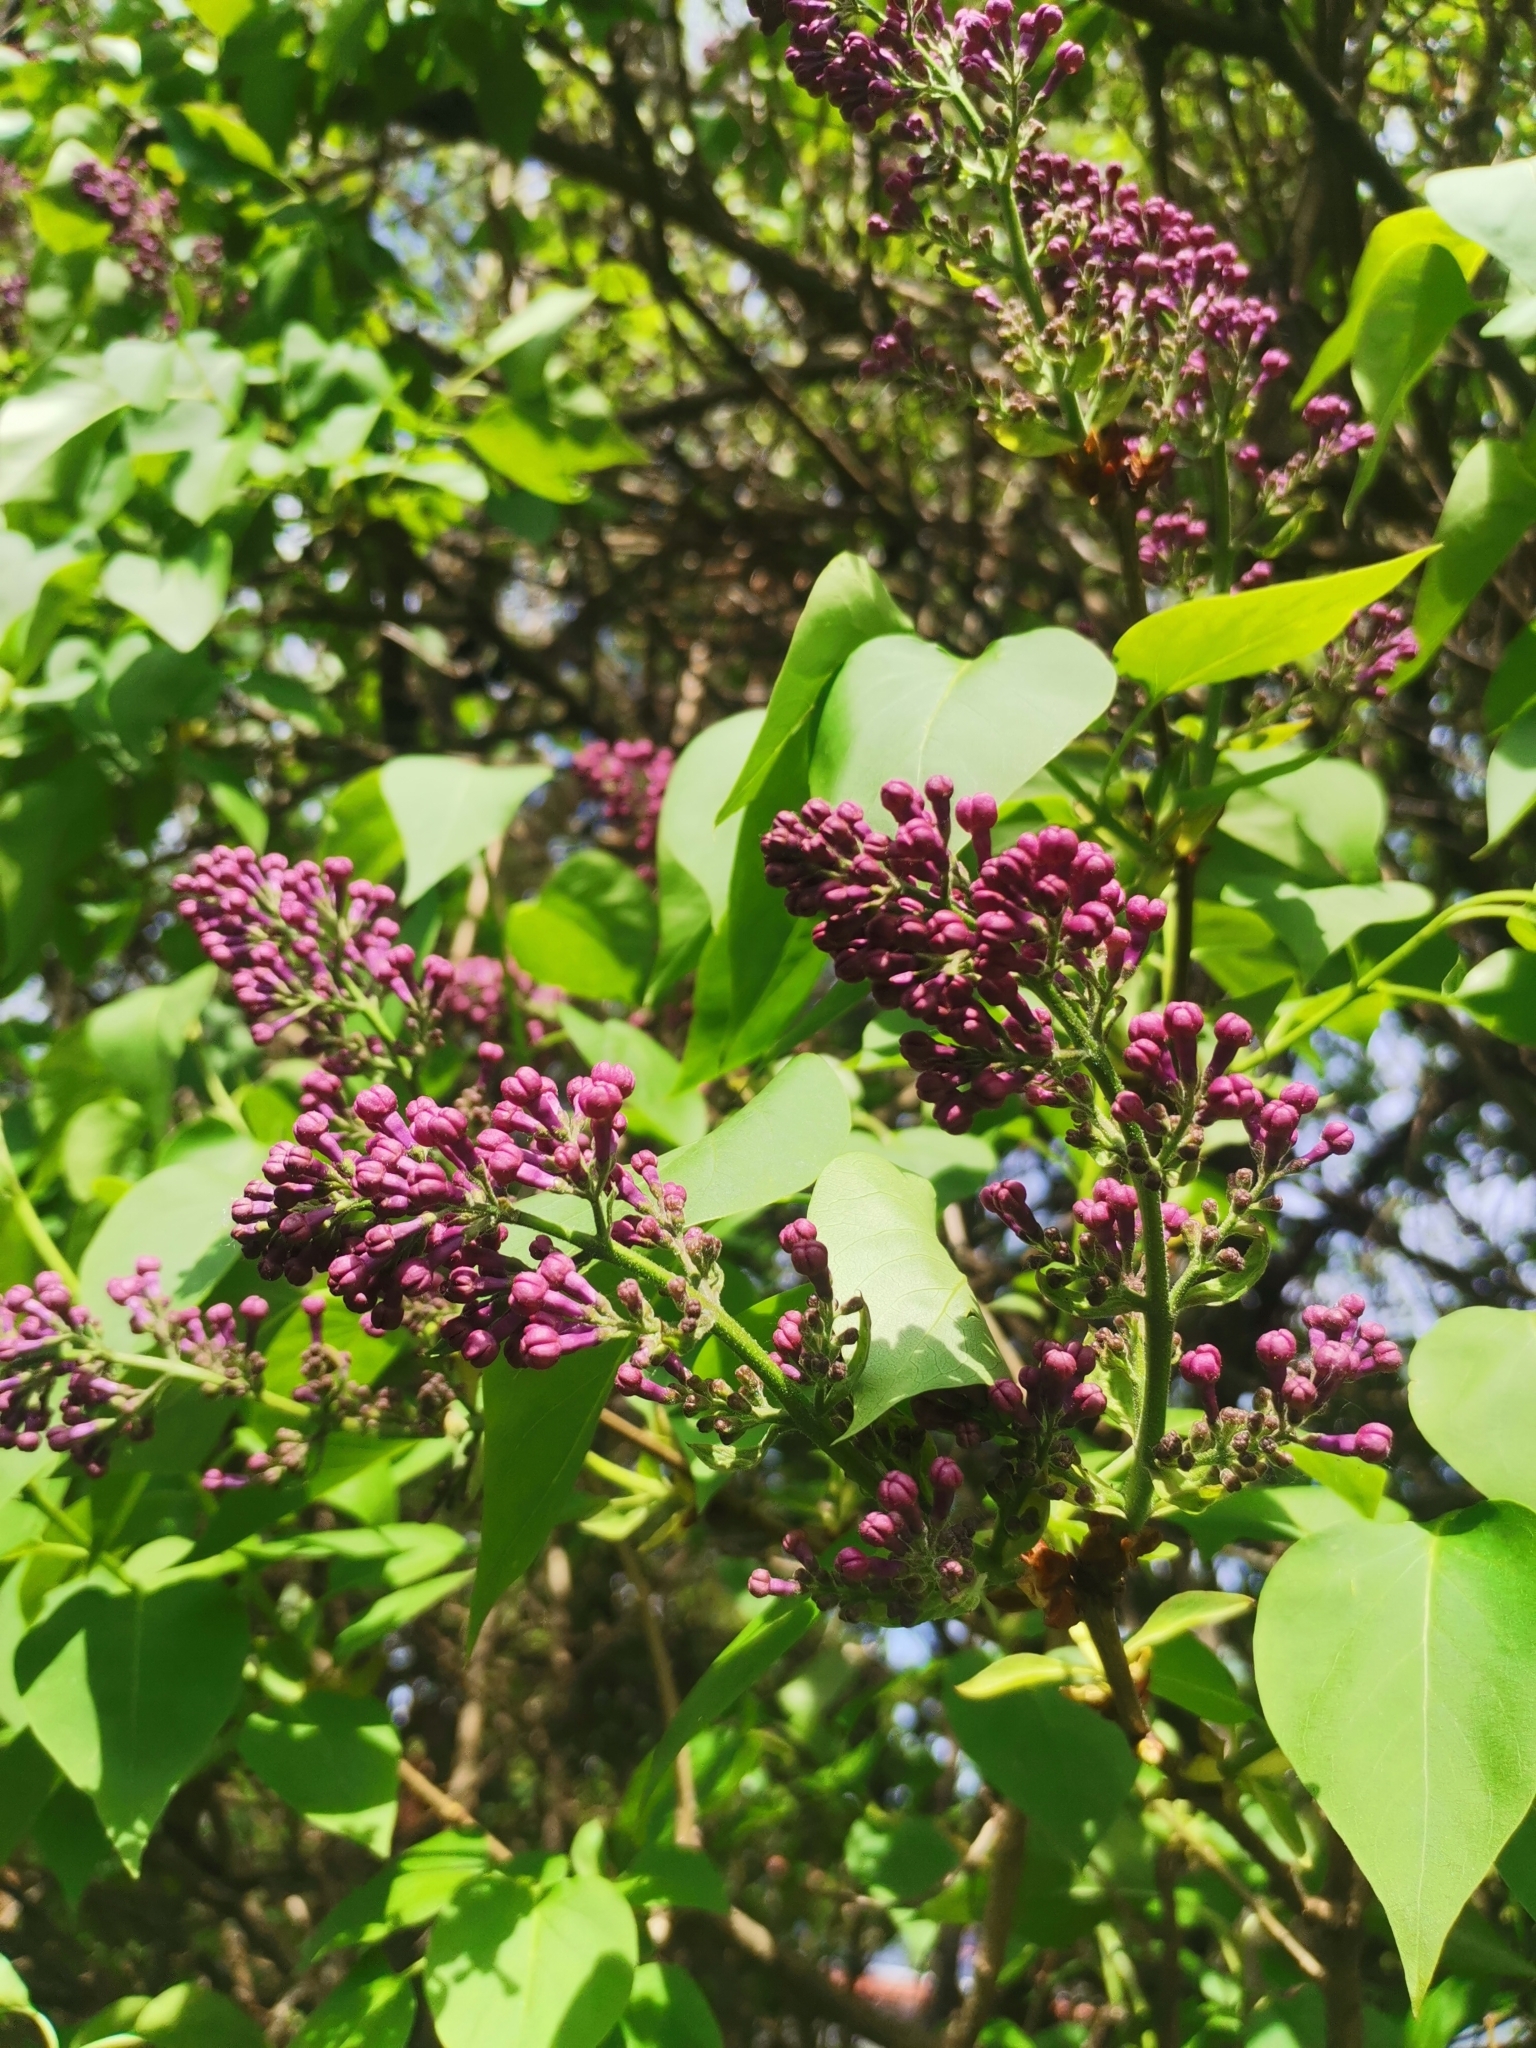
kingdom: Plantae
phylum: Tracheophyta
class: Magnoliopsida
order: Lamiales
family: Oleaceae
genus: Syringa
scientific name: Syringa vulgaris
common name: Common lilac
